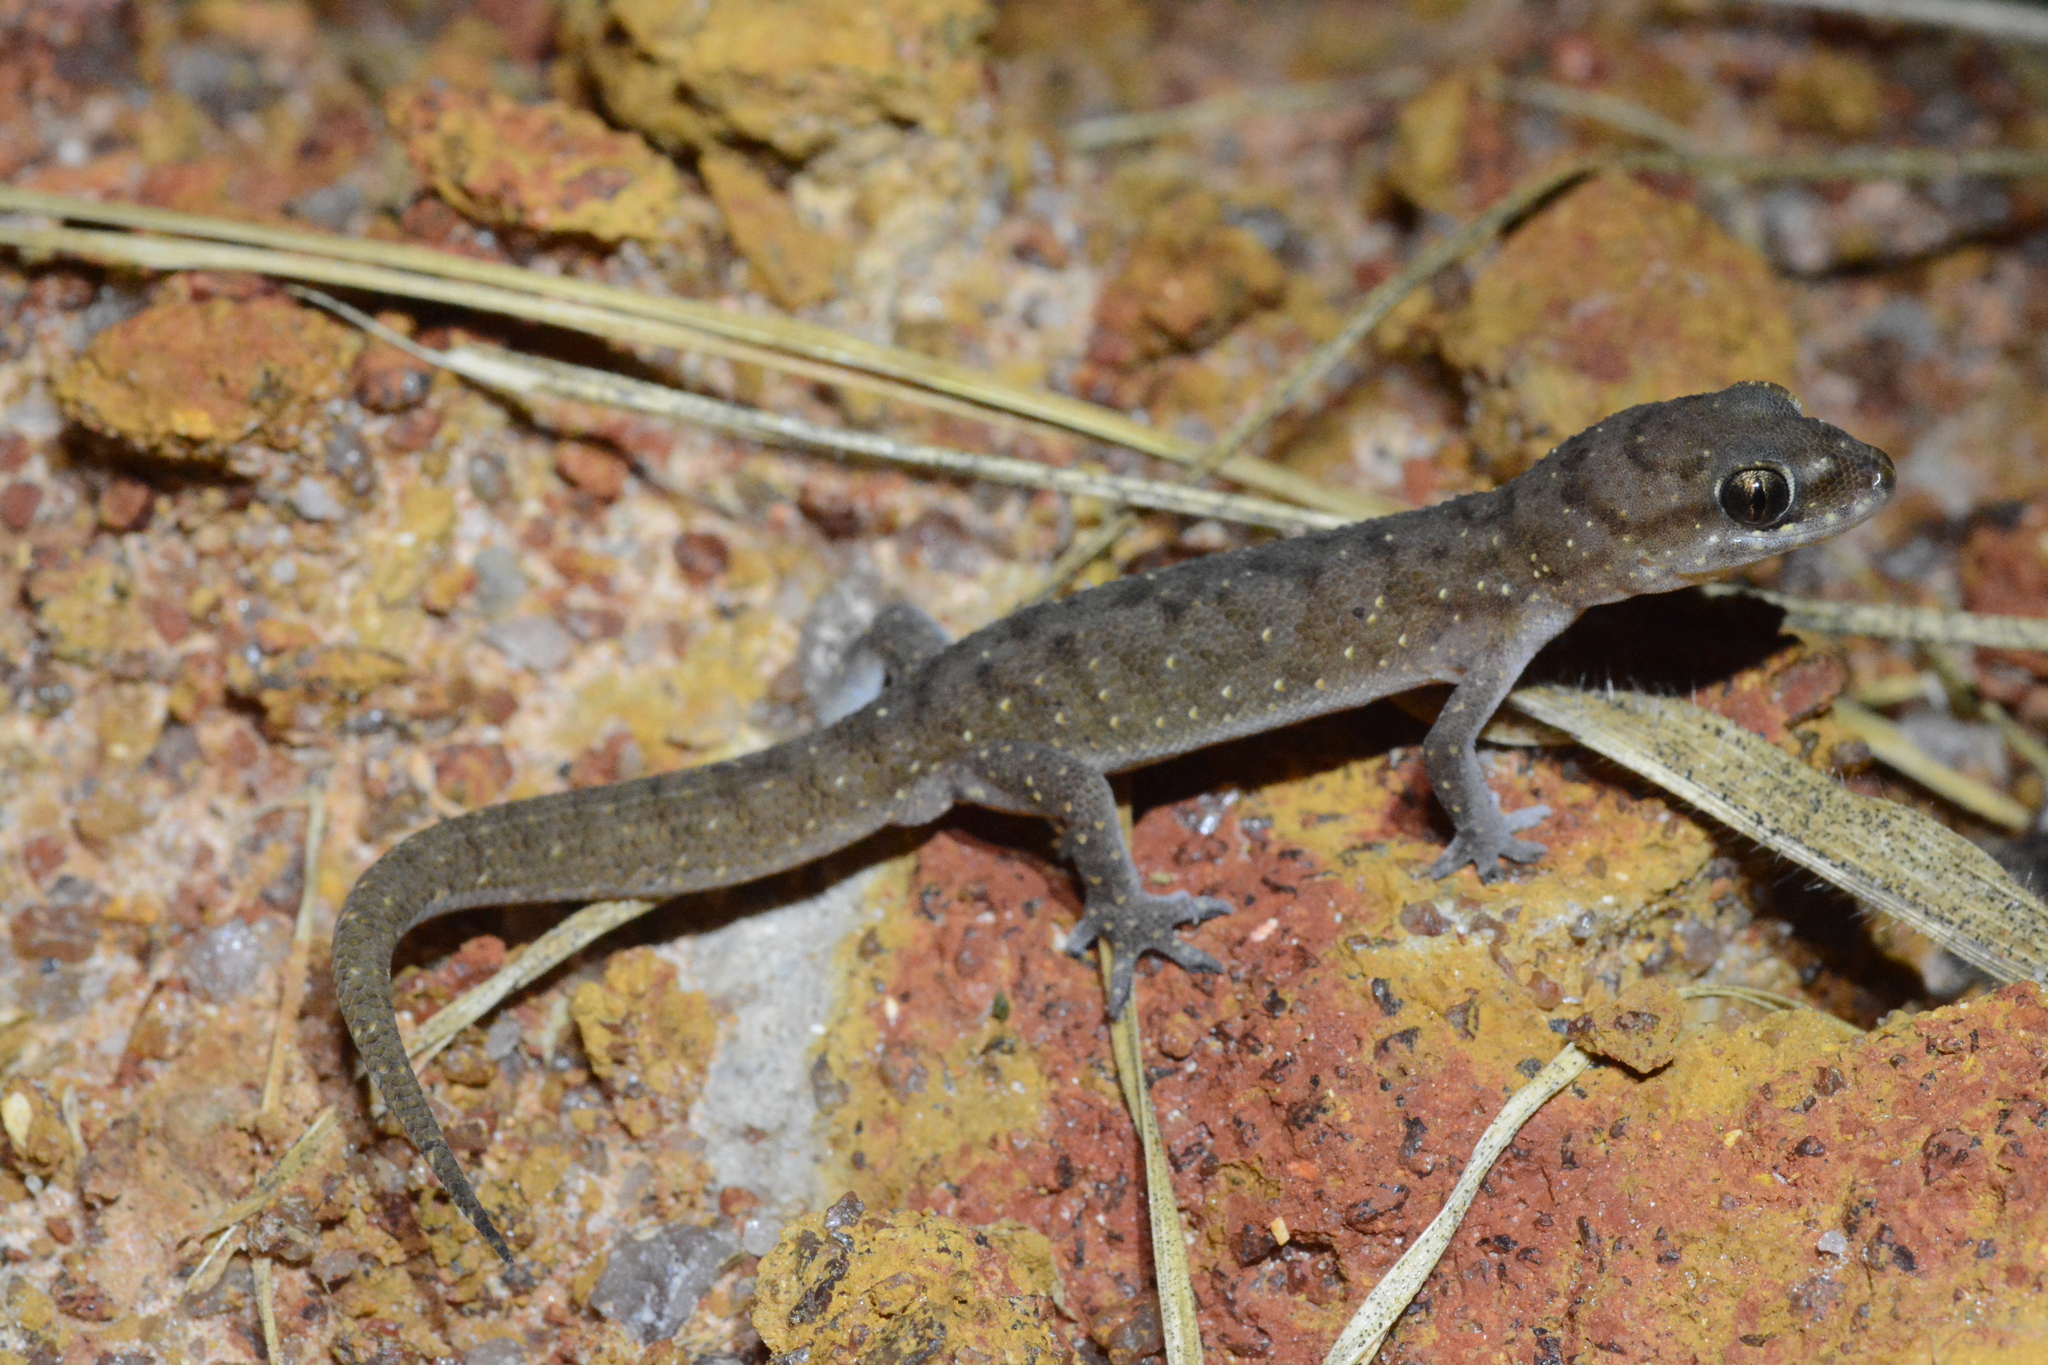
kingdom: Animalia
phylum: Chordata
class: Squamata
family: Gekkonidae
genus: Hemidactylus
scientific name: Hemidactylus squamulatus
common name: Nyika gecko
